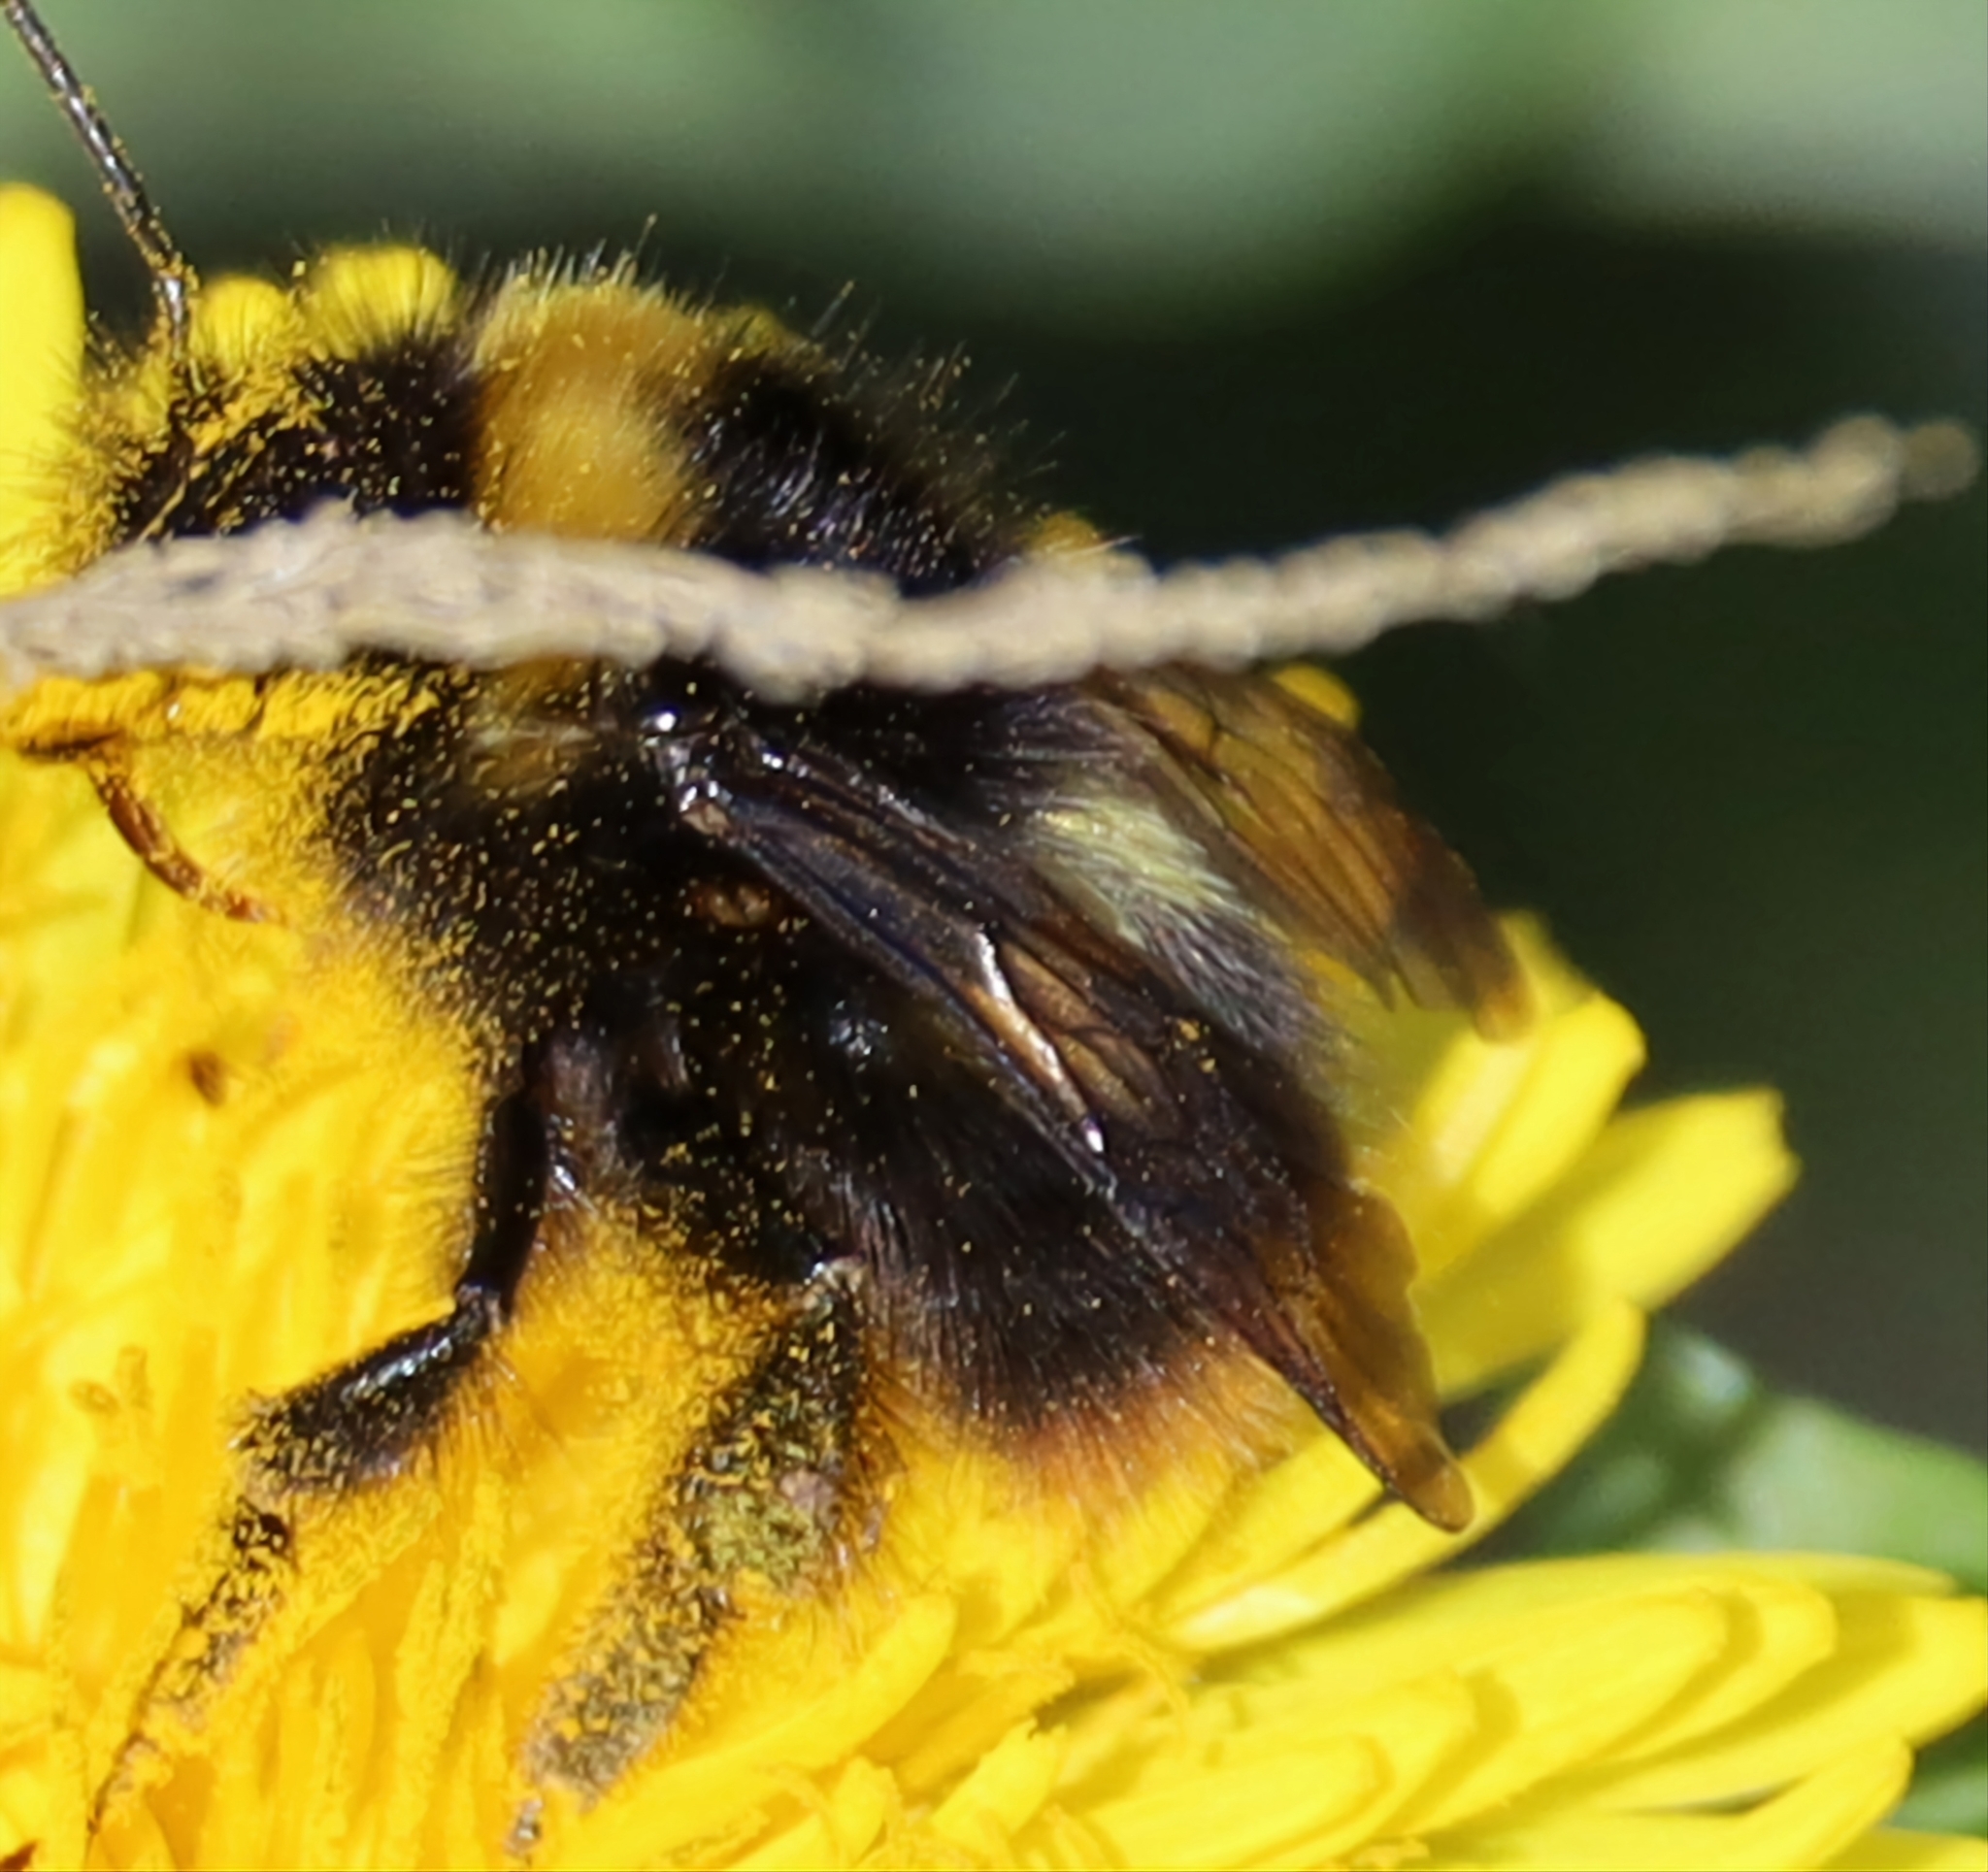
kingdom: Animalia
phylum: Arthropoda
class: Insecta
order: Hymenoptera
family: Apidae
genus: Bombus
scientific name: Bombus pratorum
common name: Early humble-bee
